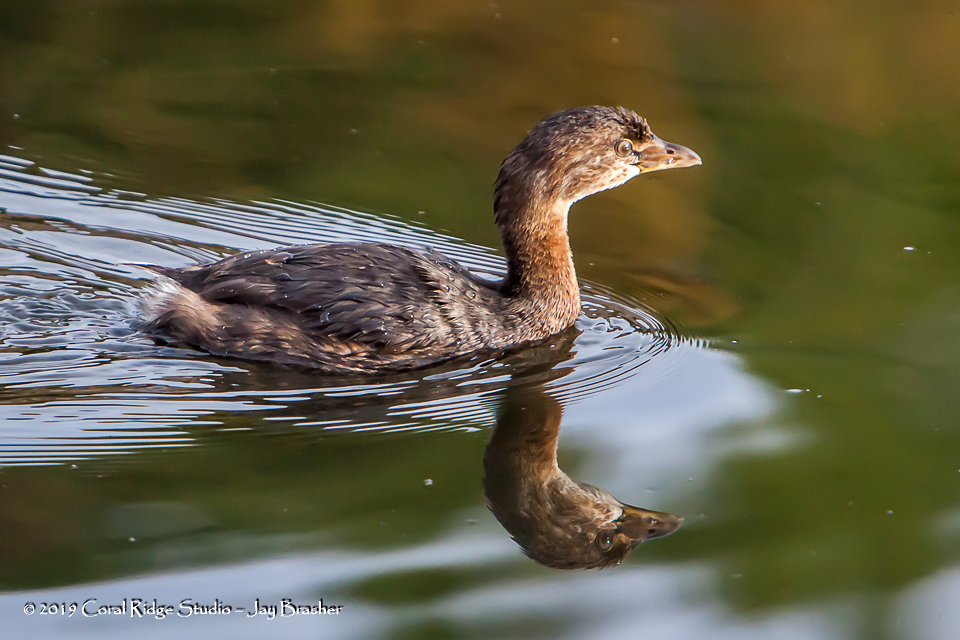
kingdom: Animalia
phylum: Chordata
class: Aves
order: Podicipediformes
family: Podicipedidae
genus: Podilymbus
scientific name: Podilymbus podiceps
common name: Pied-billed grebe
